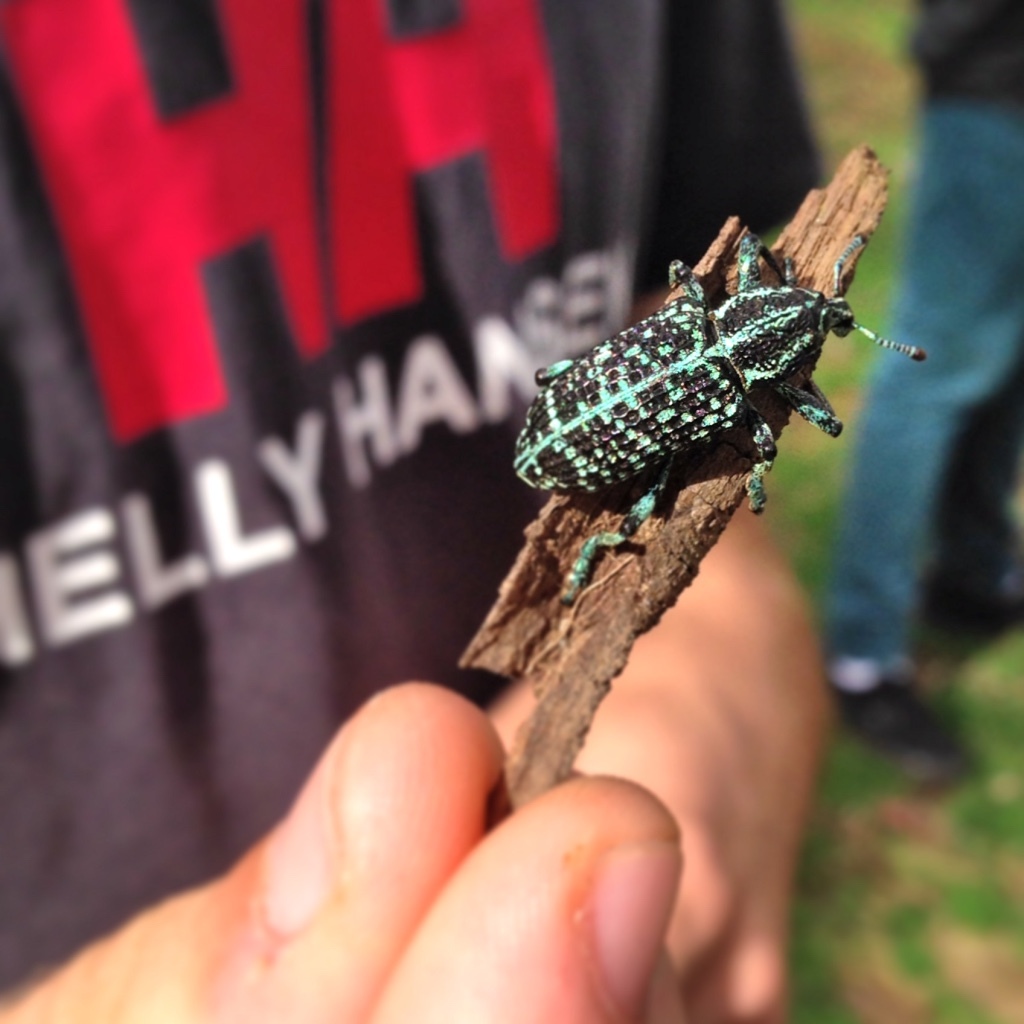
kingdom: Animalia
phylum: Arthropoda
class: Insecta
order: Coleoptera
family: Curculionidae
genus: Chrysolopus
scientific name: Chrysolopus spectabilis
